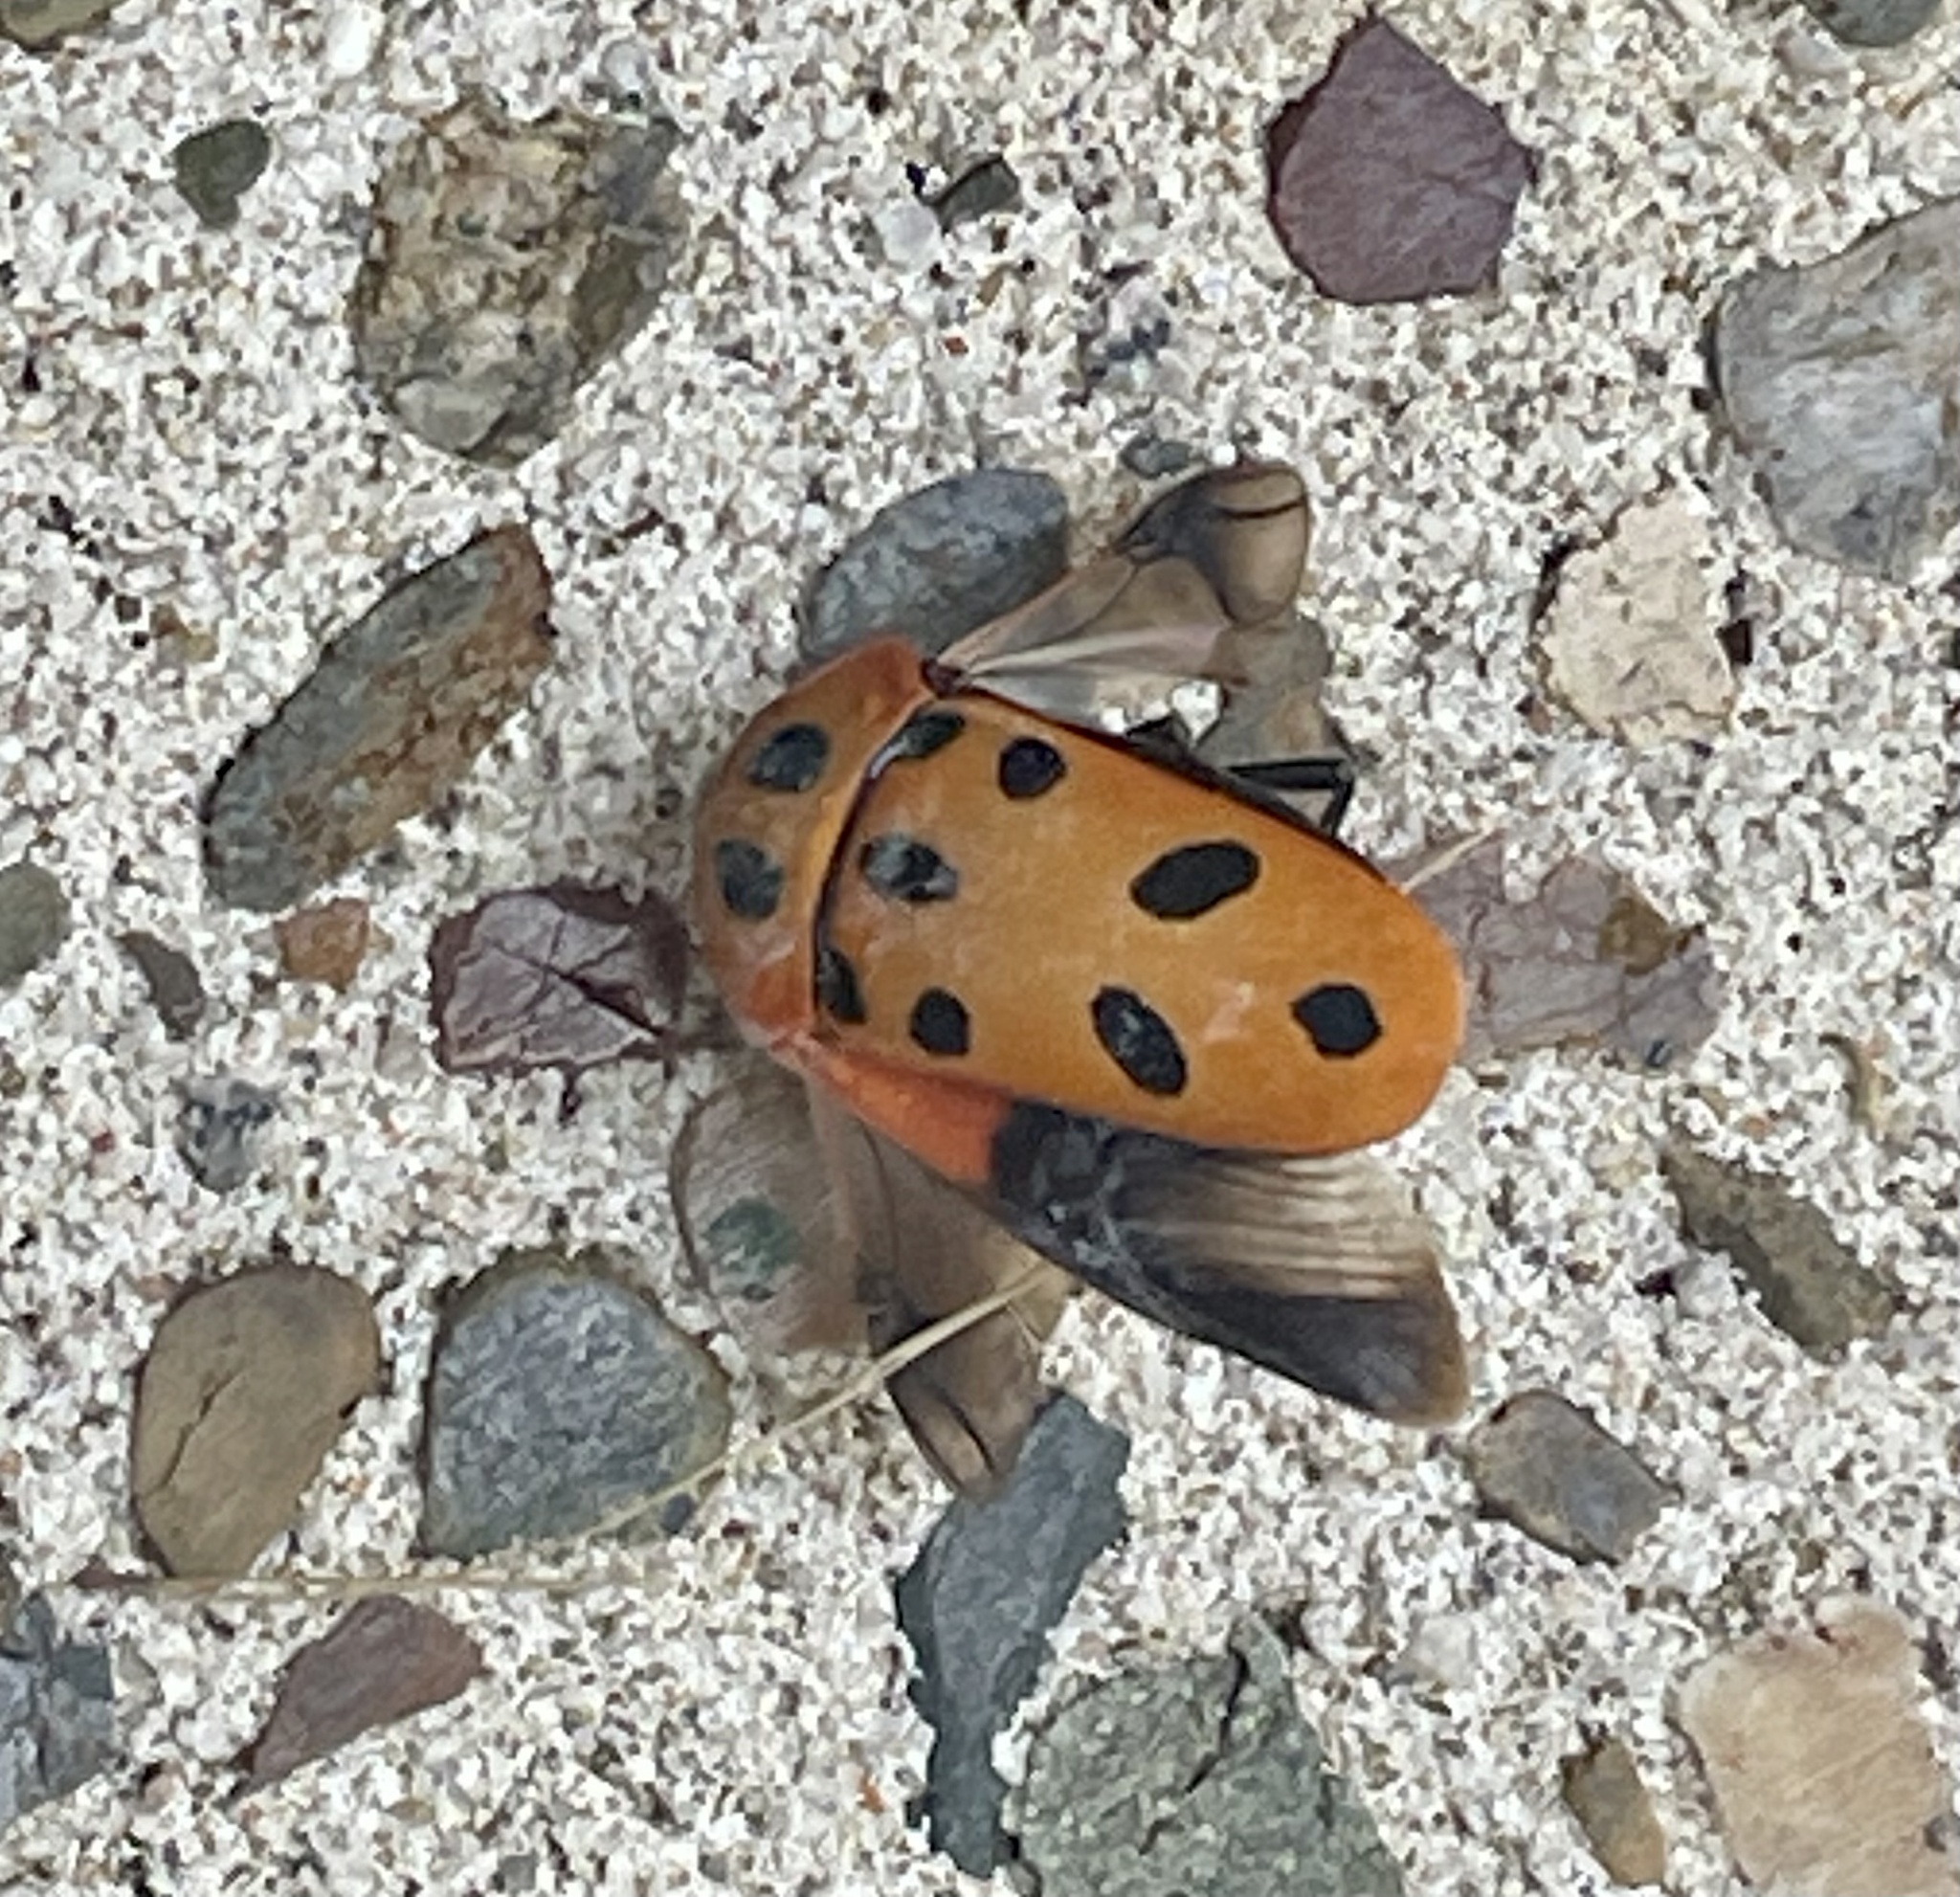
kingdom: Animalia
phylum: Arthropoda
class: Insecta
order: Hemiptera
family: Scutelleridae
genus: Cantao
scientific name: Cantao
